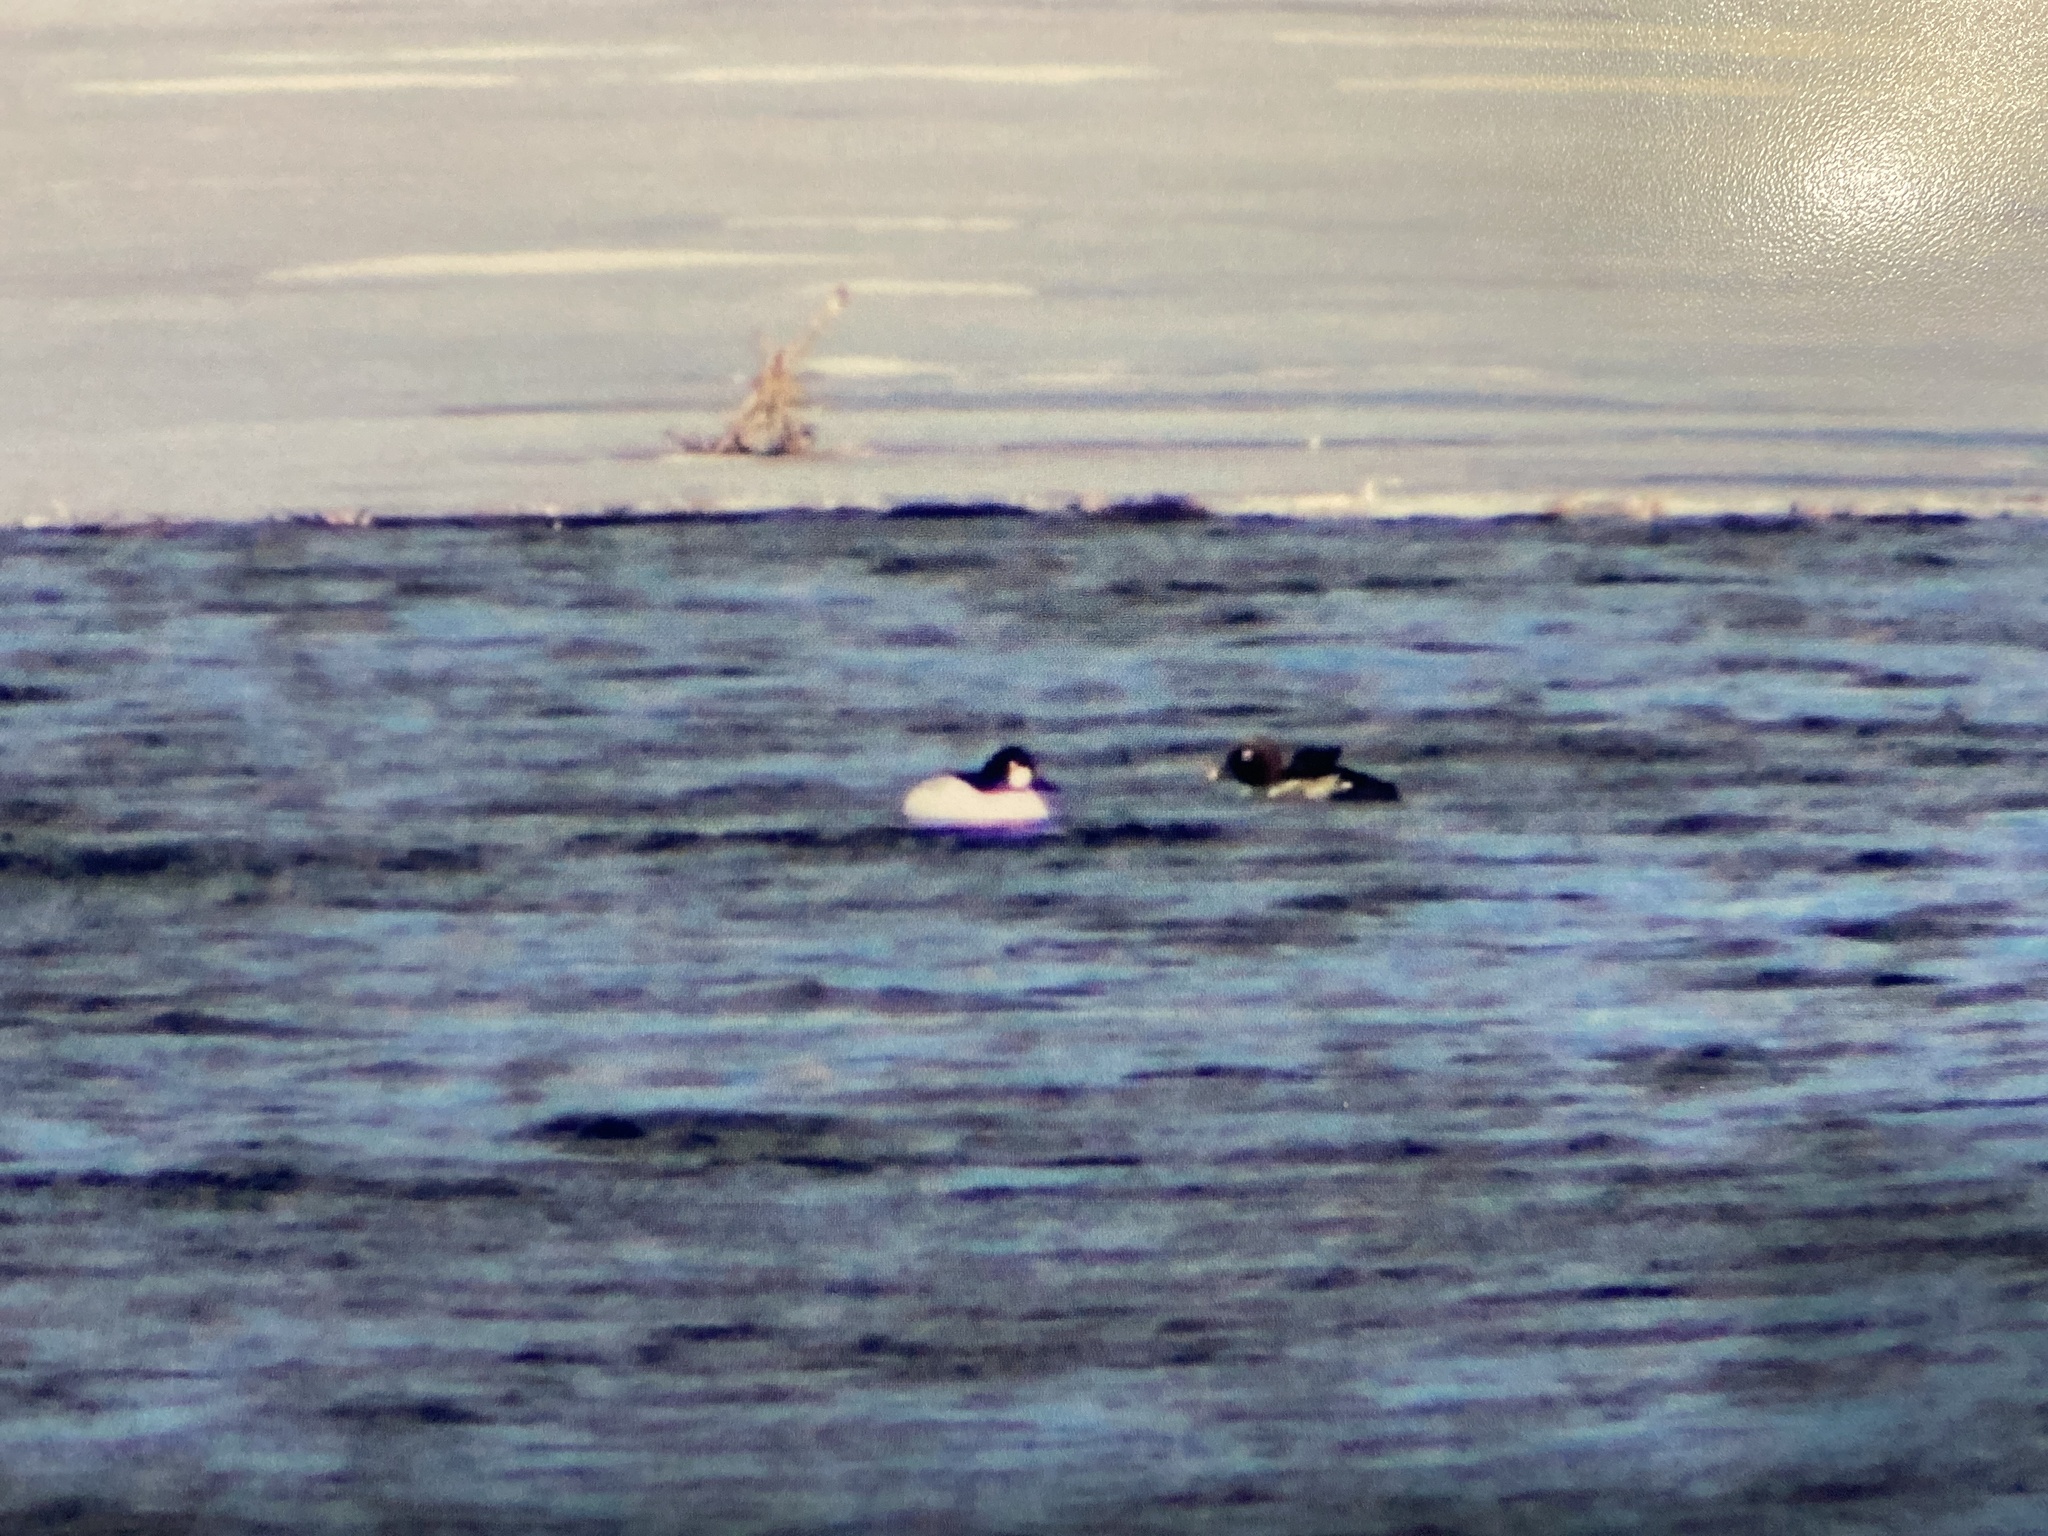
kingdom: Animalia
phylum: Chordata
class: Aves
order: Anseriformes
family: Anatidae
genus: Bucephala
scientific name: Bucephala clangula
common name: Common goldeneye
